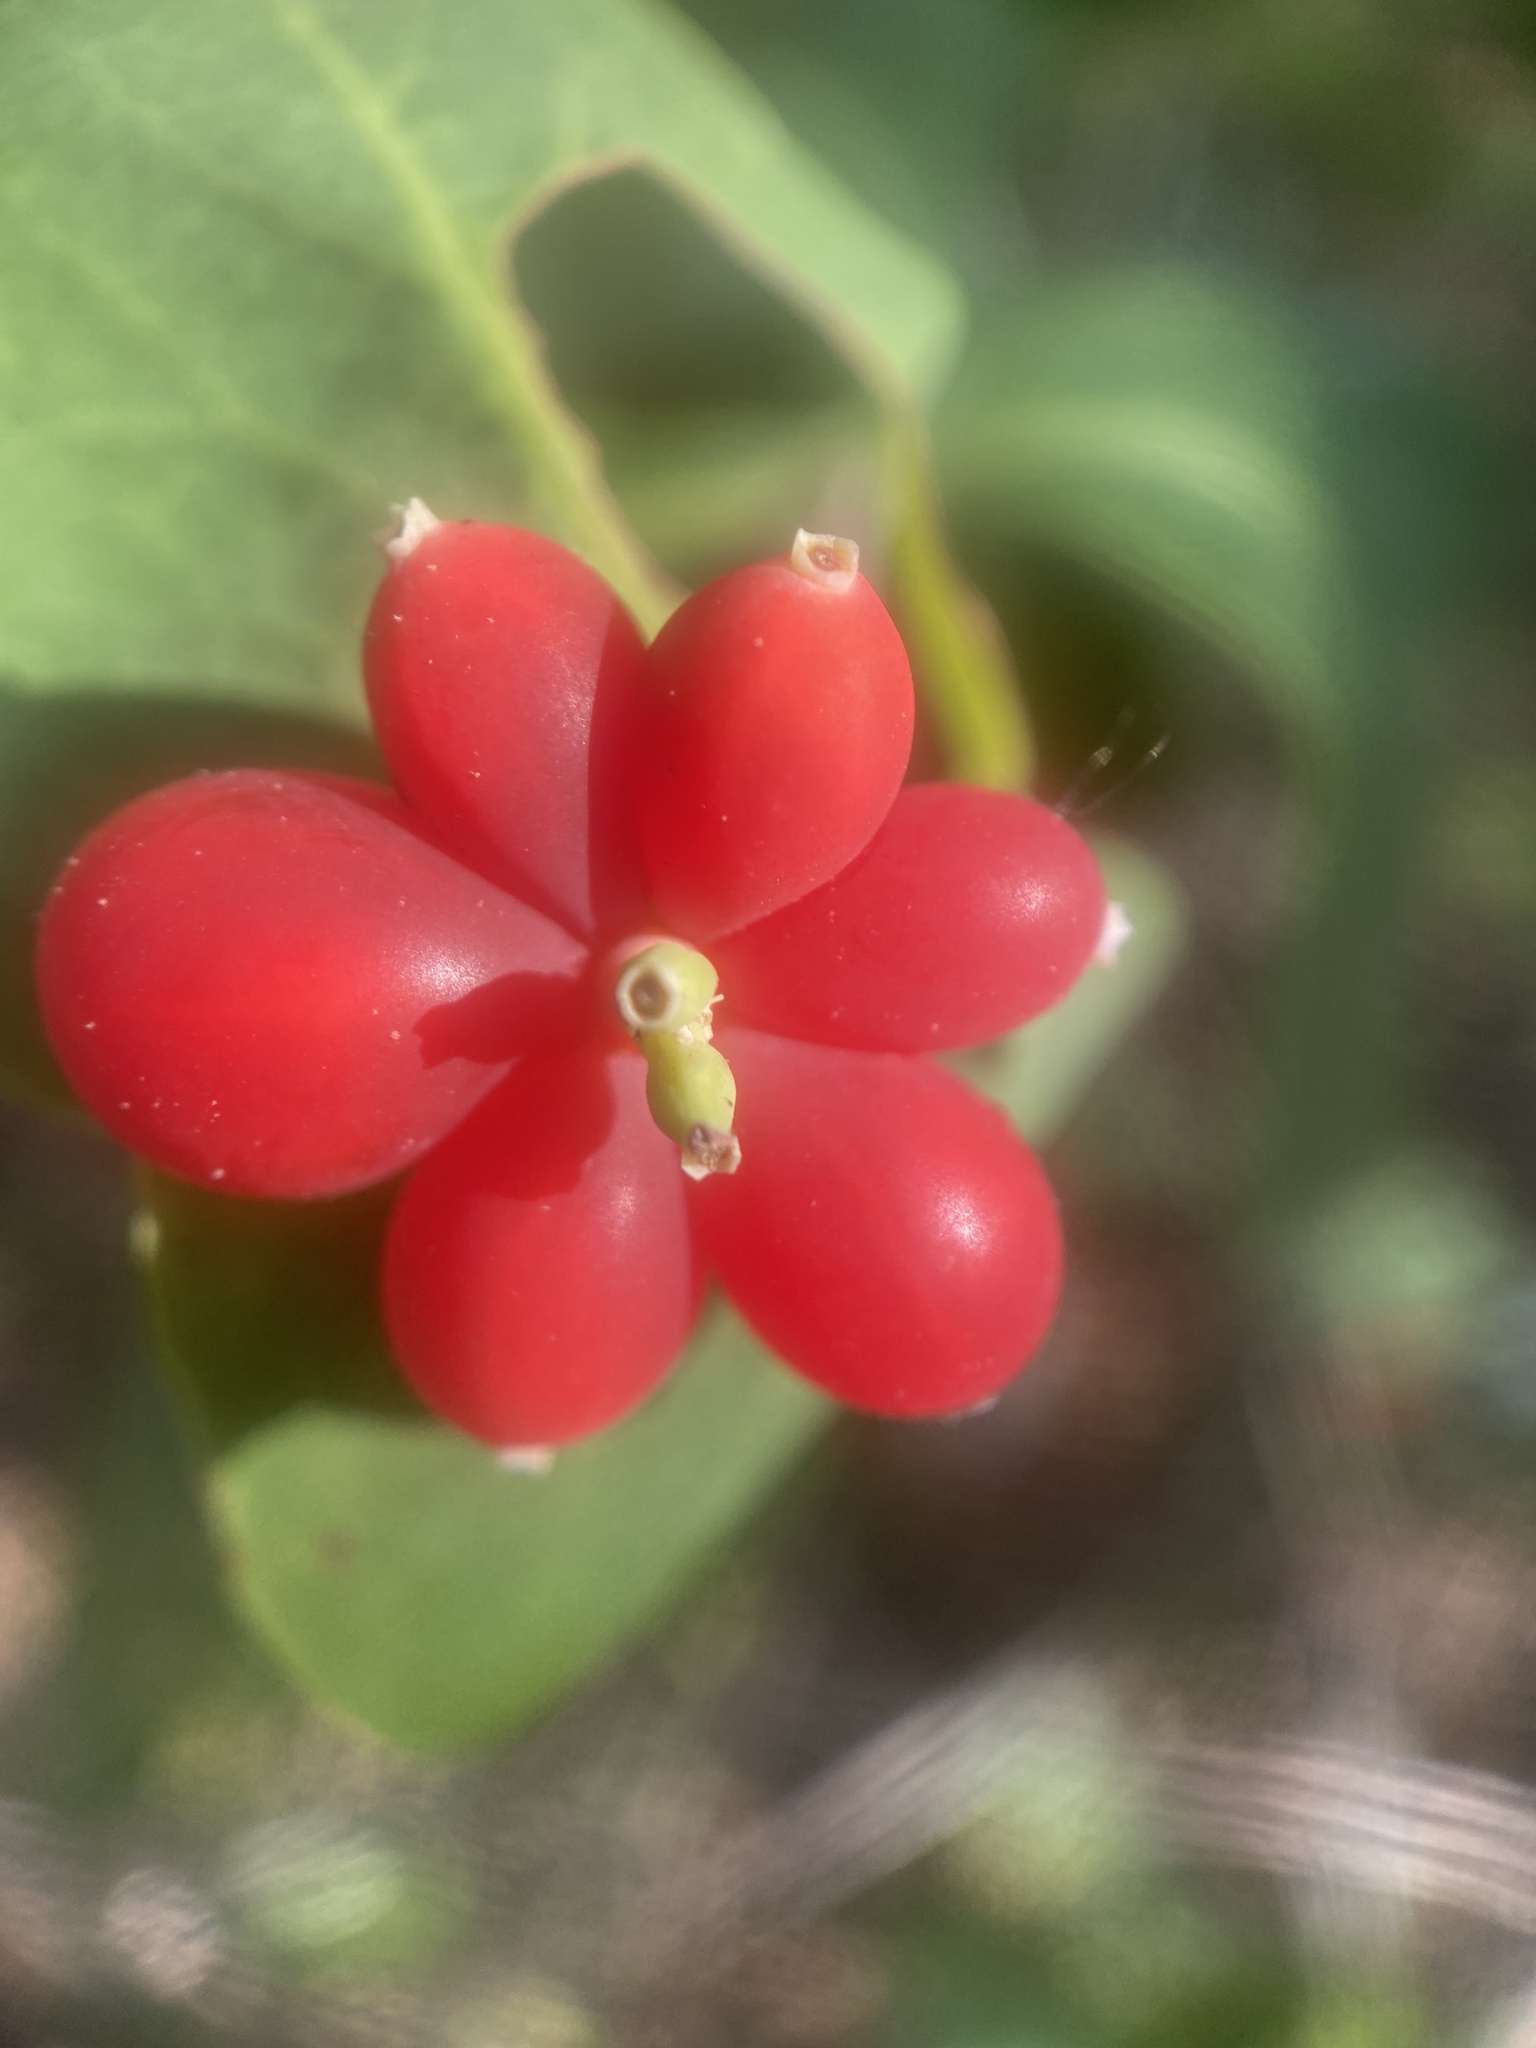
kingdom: Plantae
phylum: Tracheophyta
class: Magnoliopsida
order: Dipsacales
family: Caprifoliaceae
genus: Lonicera
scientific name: Lonicera dioica
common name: Limber honeysuckle
